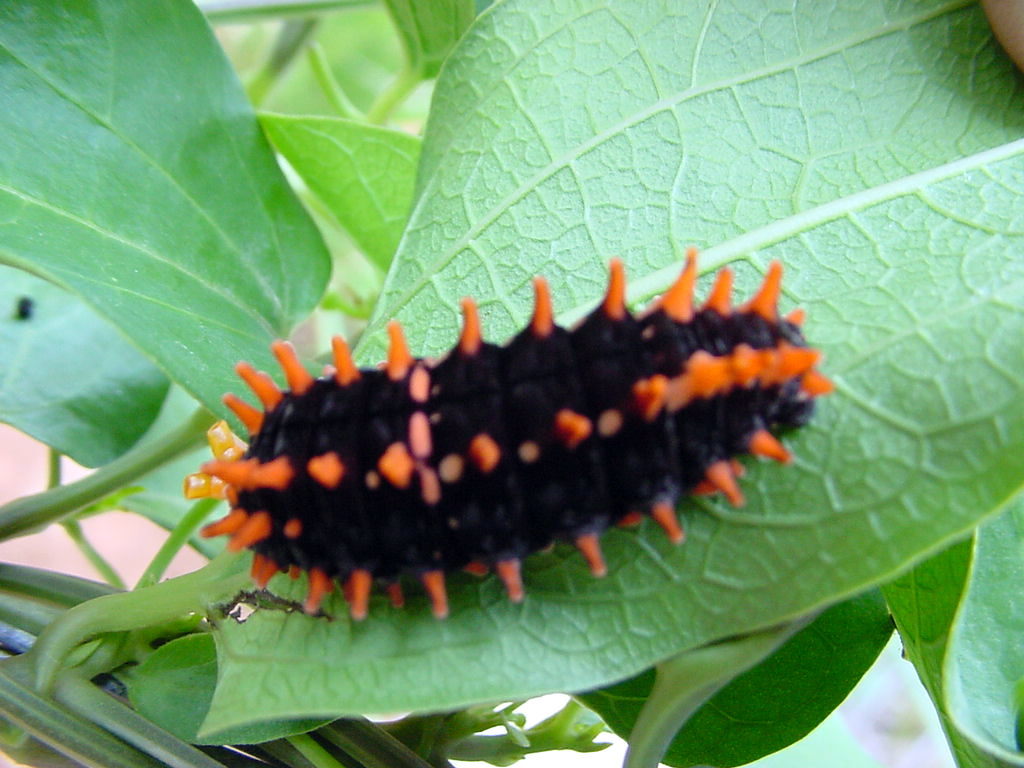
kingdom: Animalia
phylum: Arthropoda
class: Insecta
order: Lepidoptera
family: Papilionidae
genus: Pachliopta
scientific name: Pachliopta hector
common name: Crimson rose
